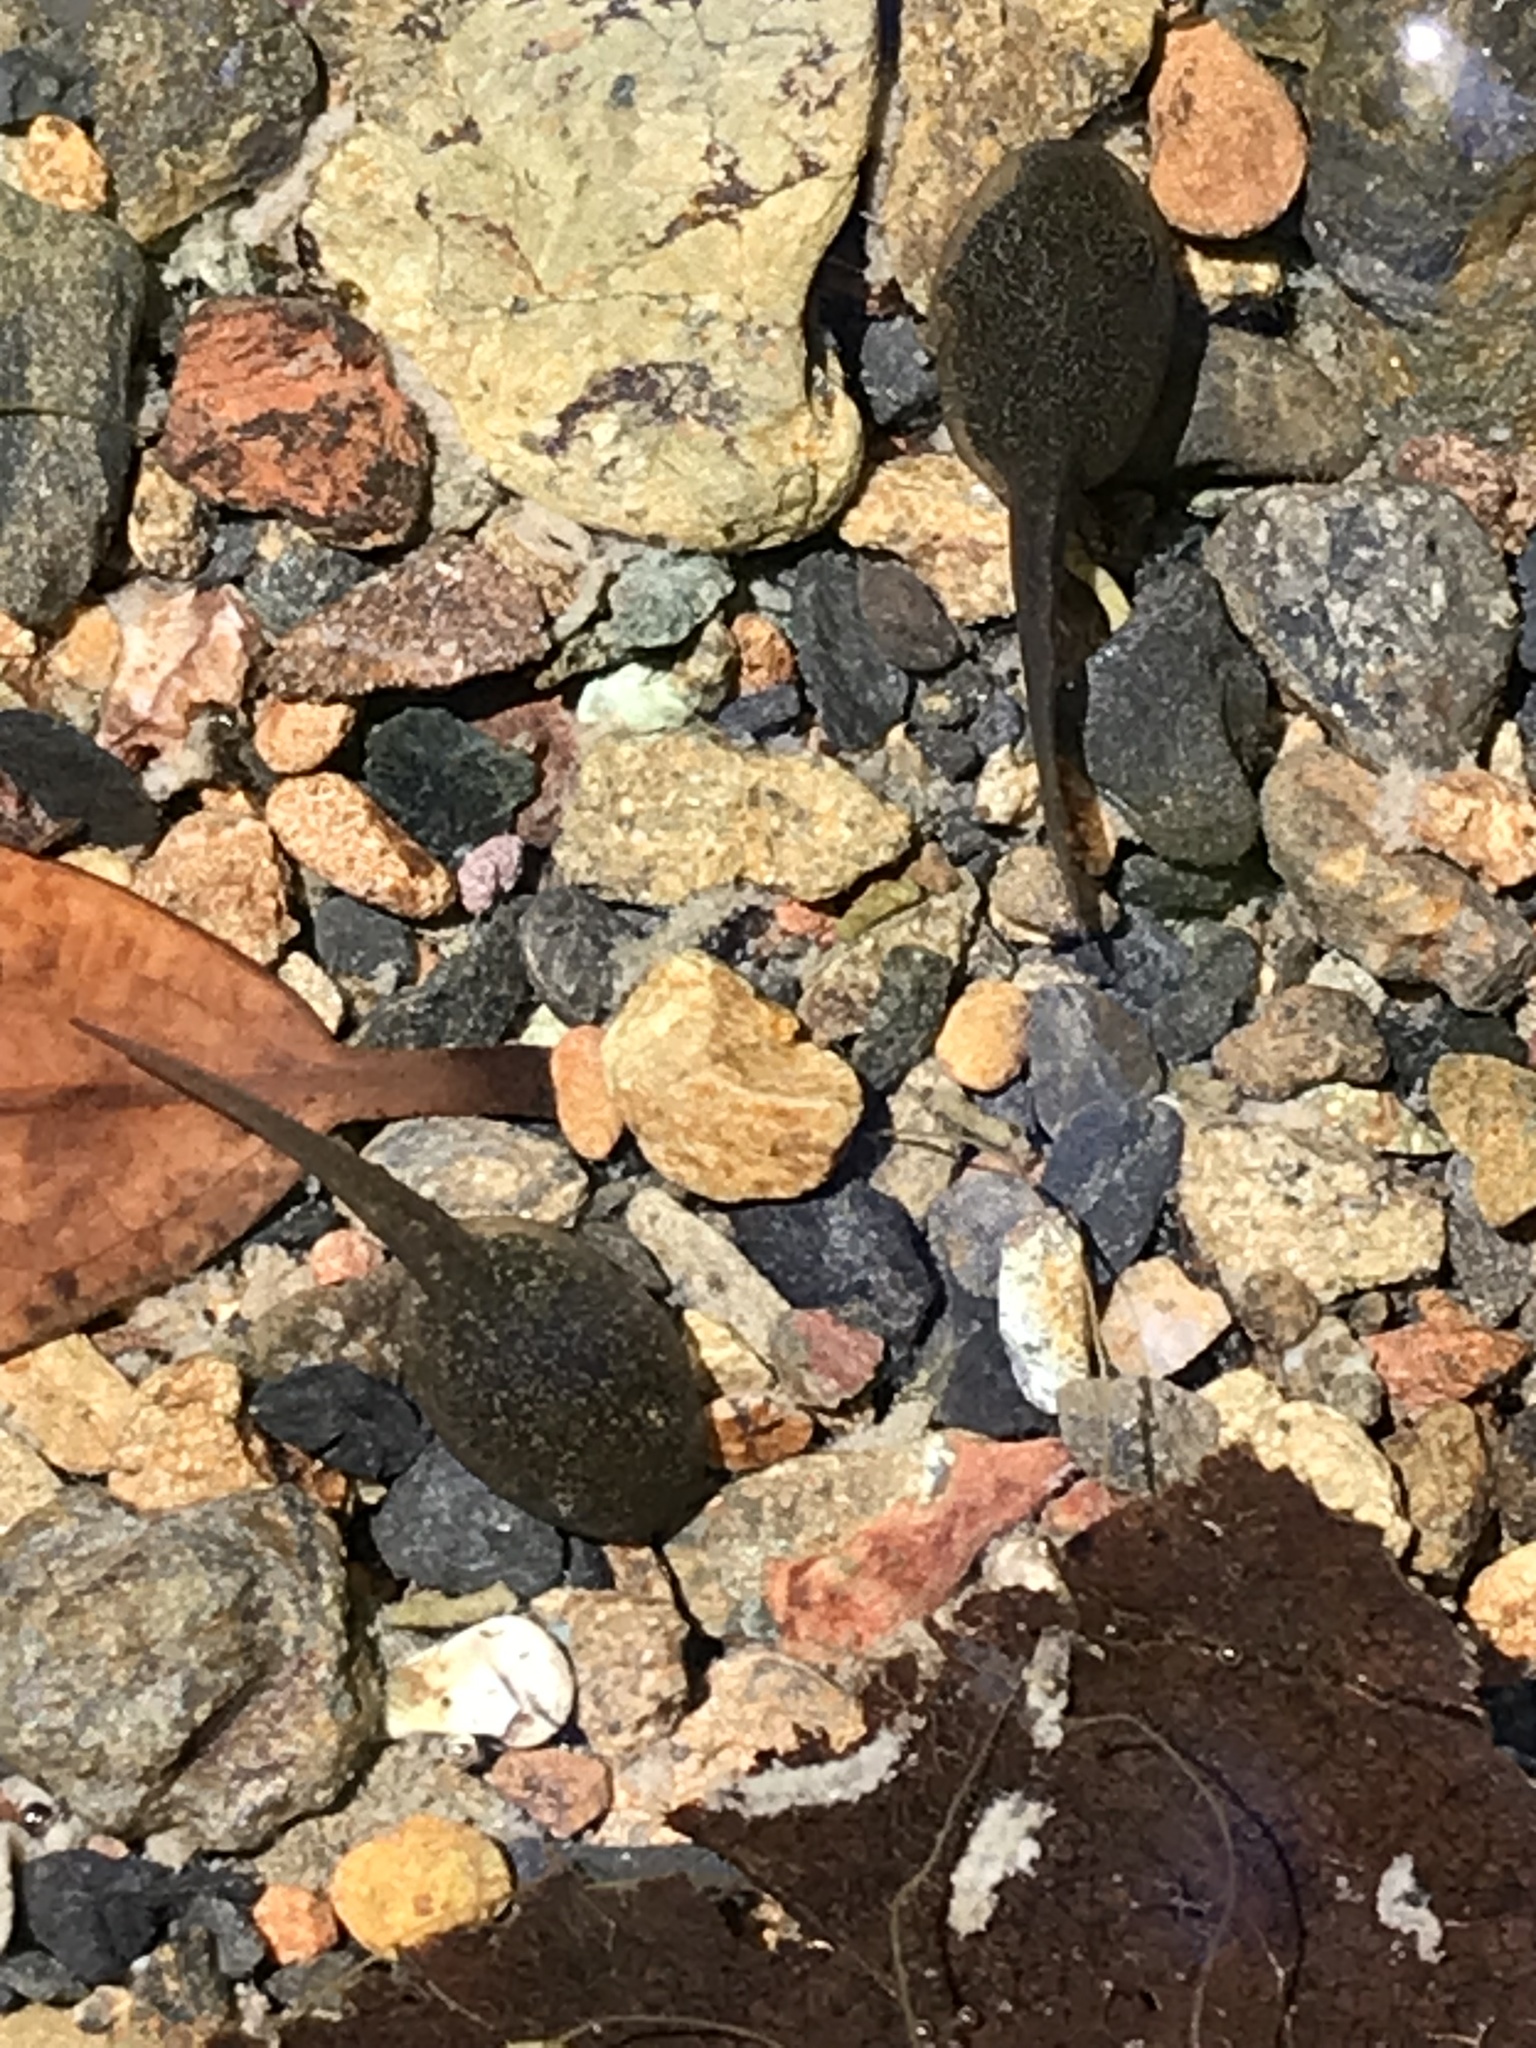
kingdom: Animalia
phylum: Chordata
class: Amphibia
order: Anura
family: Ranidae
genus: Rana
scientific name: Rana boylii
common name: Foothill yellow-legged frog
